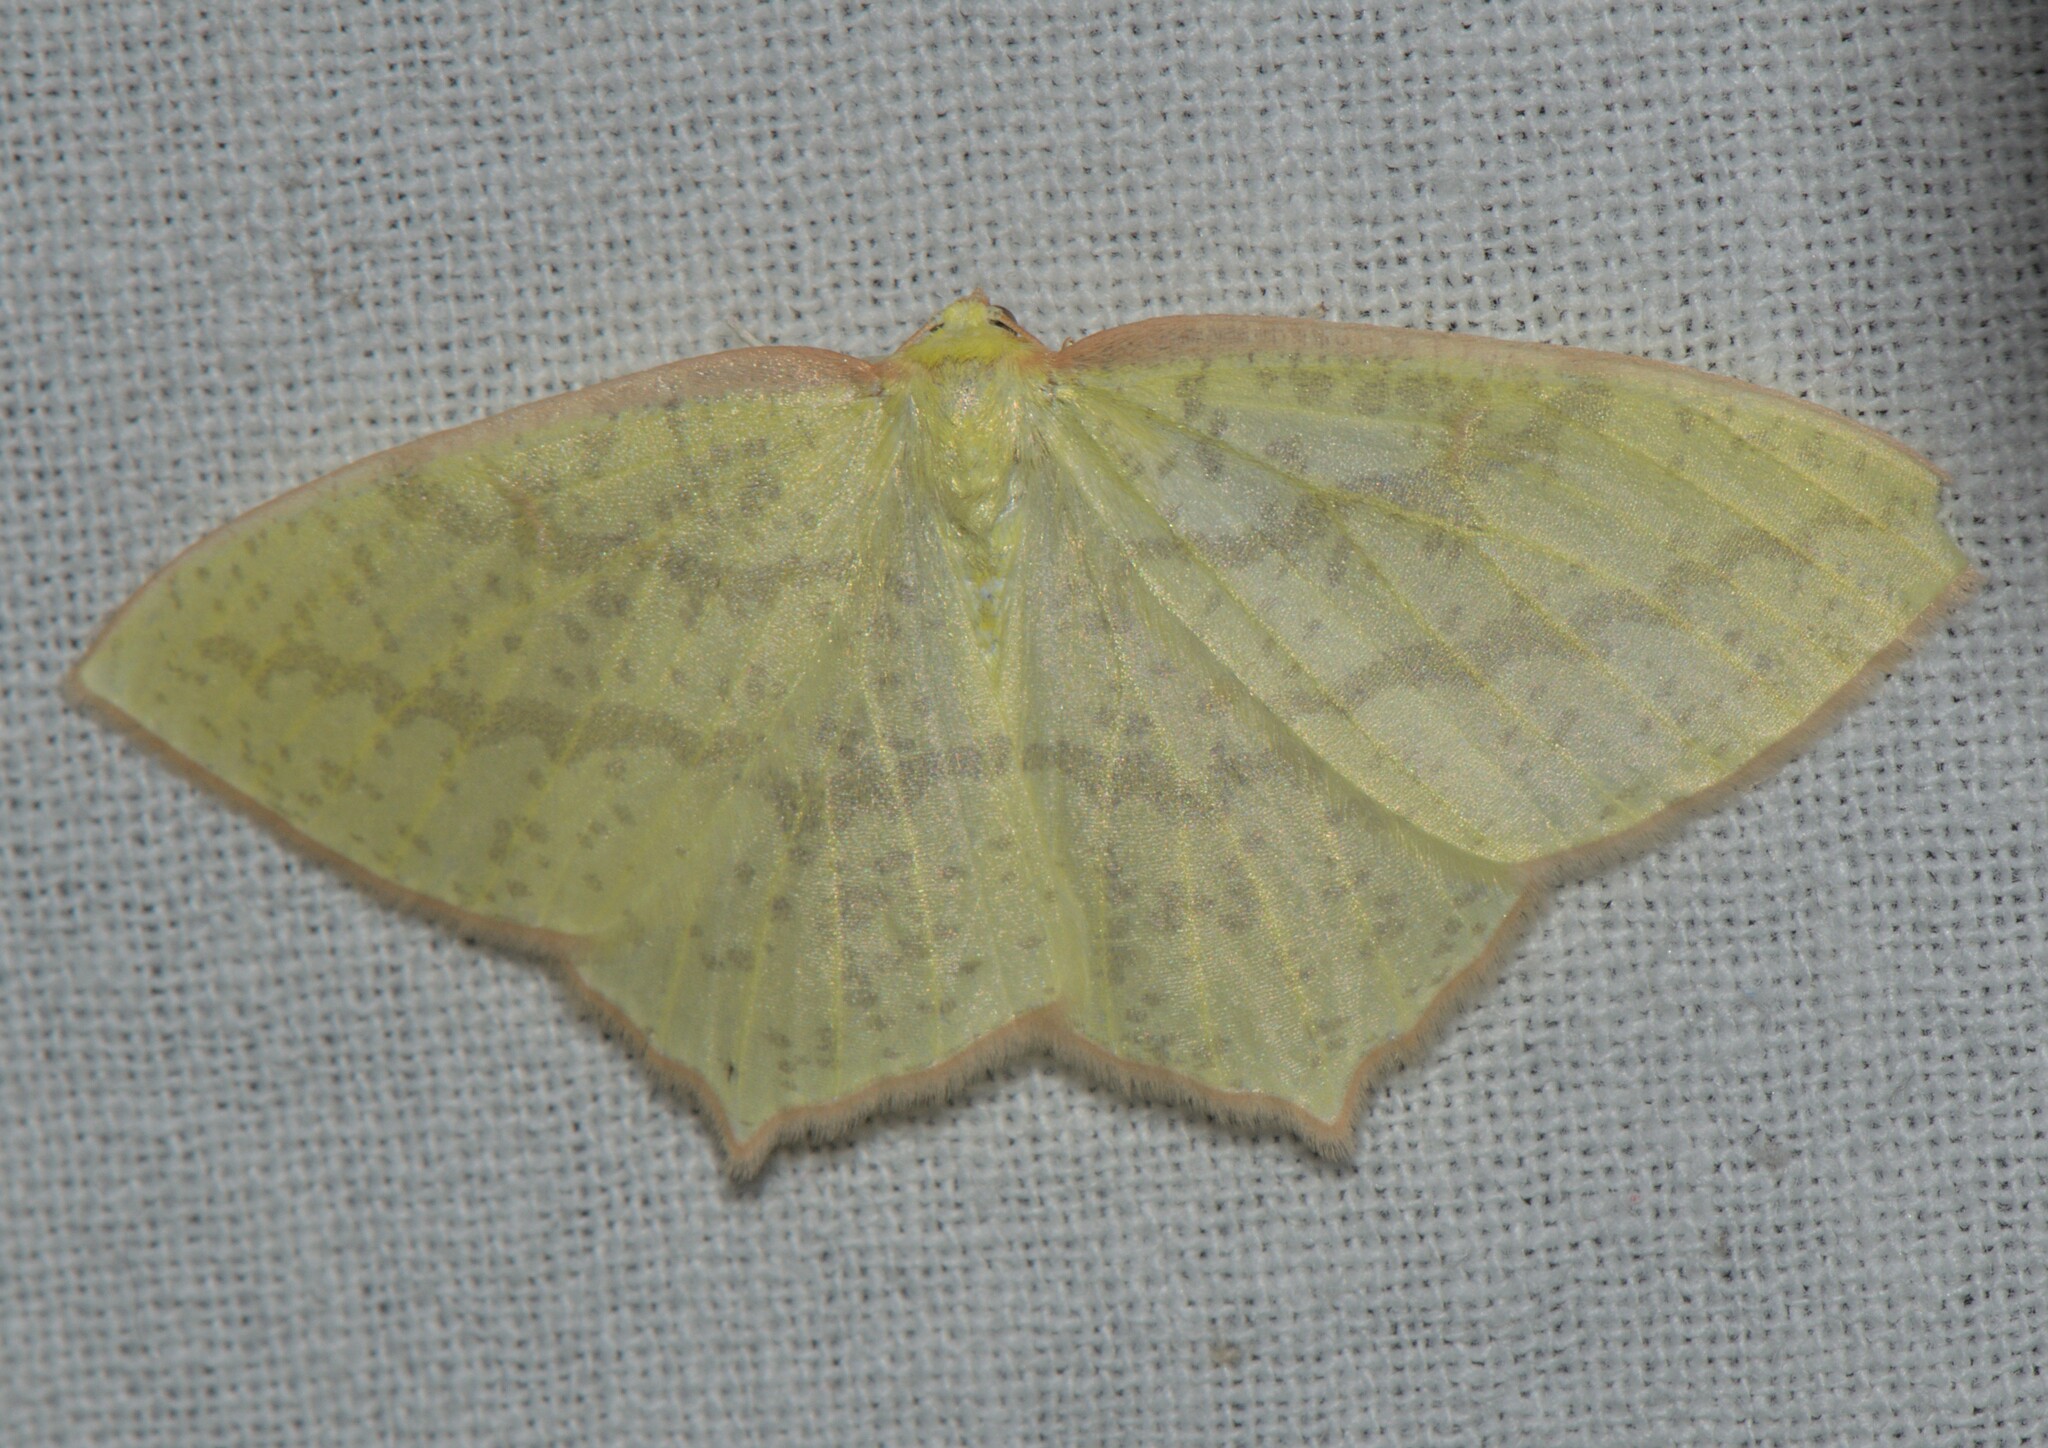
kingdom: Animalia
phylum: Arthropoda
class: Insecta
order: Lepidoptera
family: Geometridae
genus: Sirinopteryx
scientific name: Sirinopteryx rufivinctata
